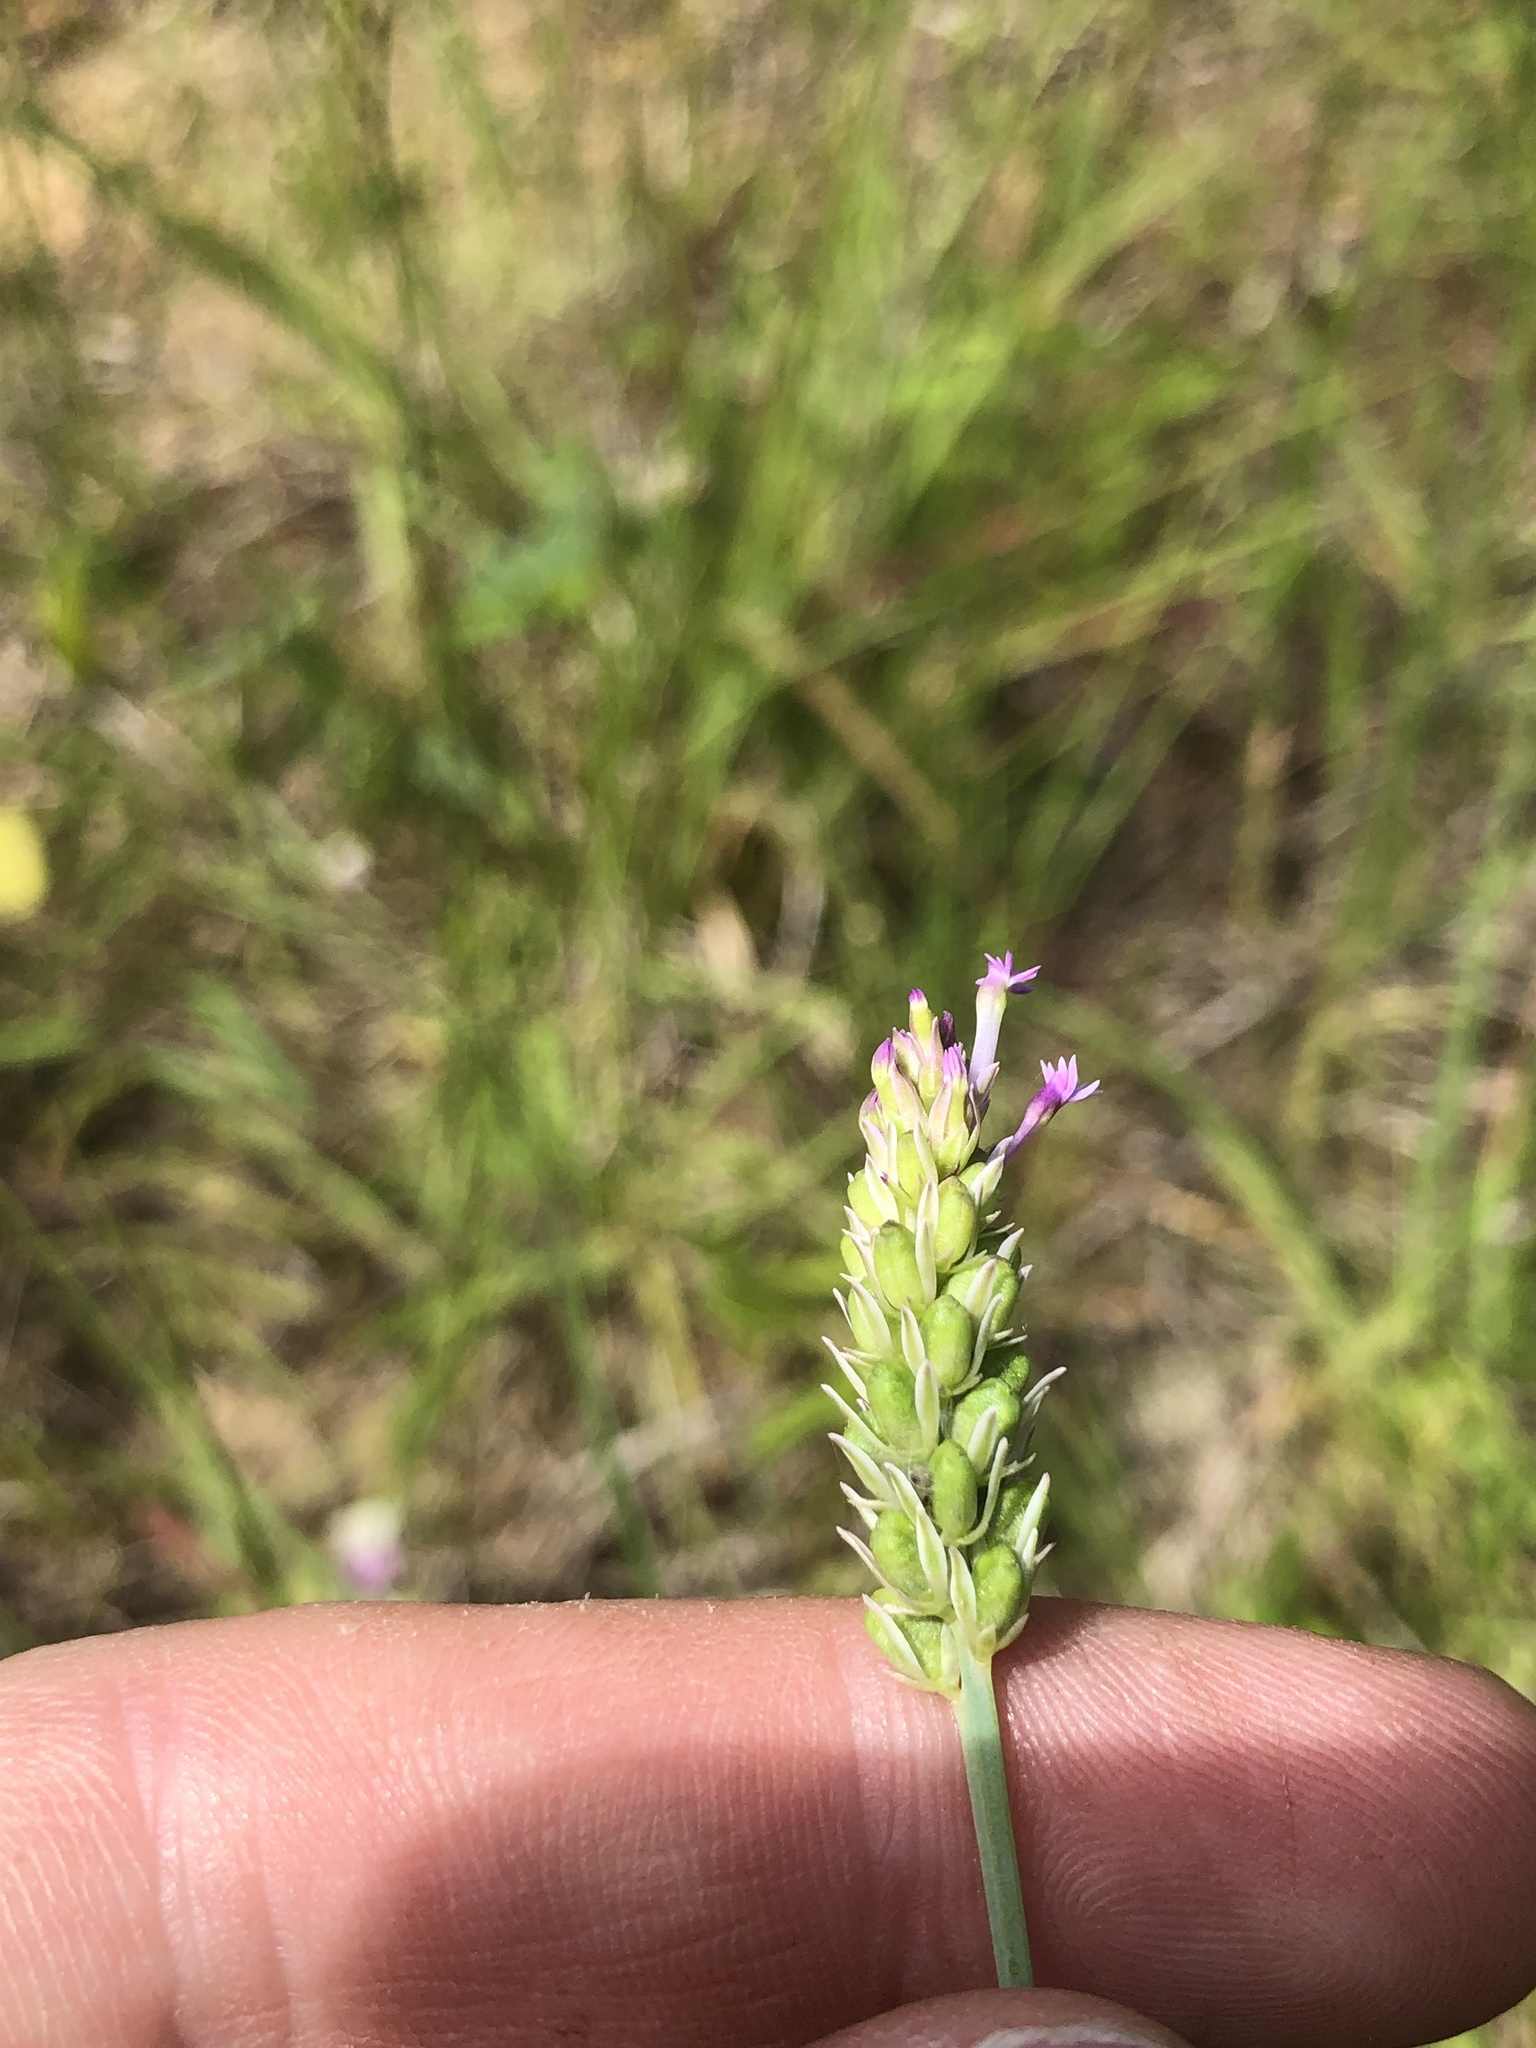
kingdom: Plantae
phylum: Tracheophyta
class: Magnoliopsida
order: Fabales
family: Polygalaceae
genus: Polygala
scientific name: Polygala incarnata
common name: Pink milkwort
